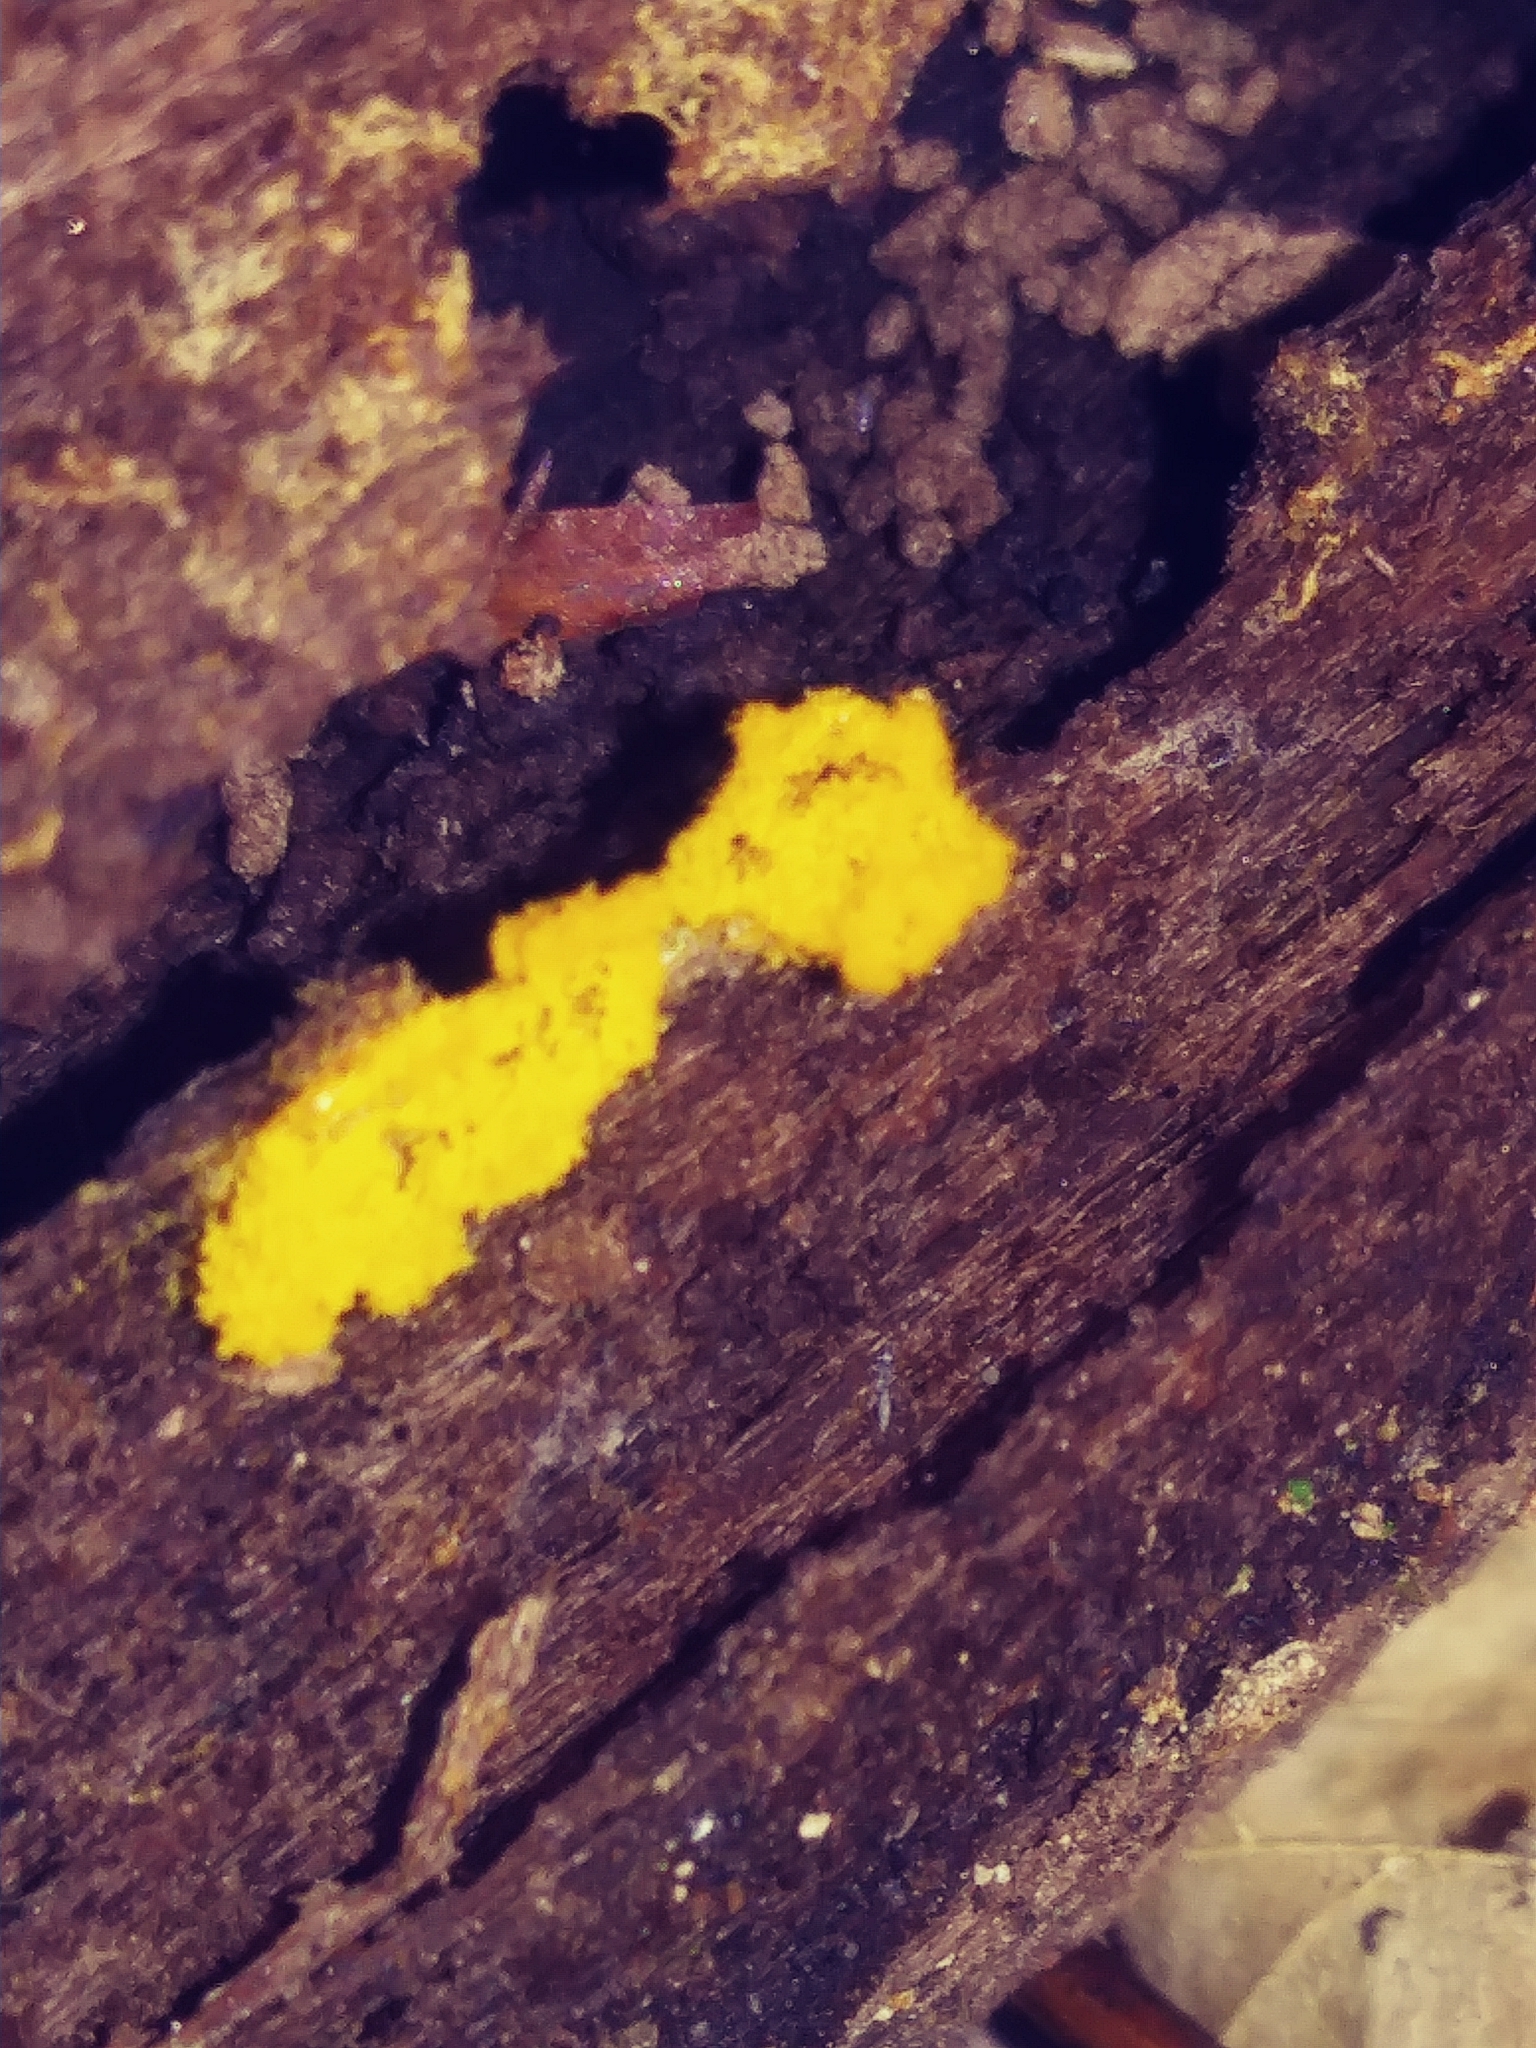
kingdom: Protozoa
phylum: Mycetozoa
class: Myxomycetes
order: Trichiales
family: Arcyriaceae
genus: Hemitrichia
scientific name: Hemitrichia serpula
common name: Pretzel slime mold
